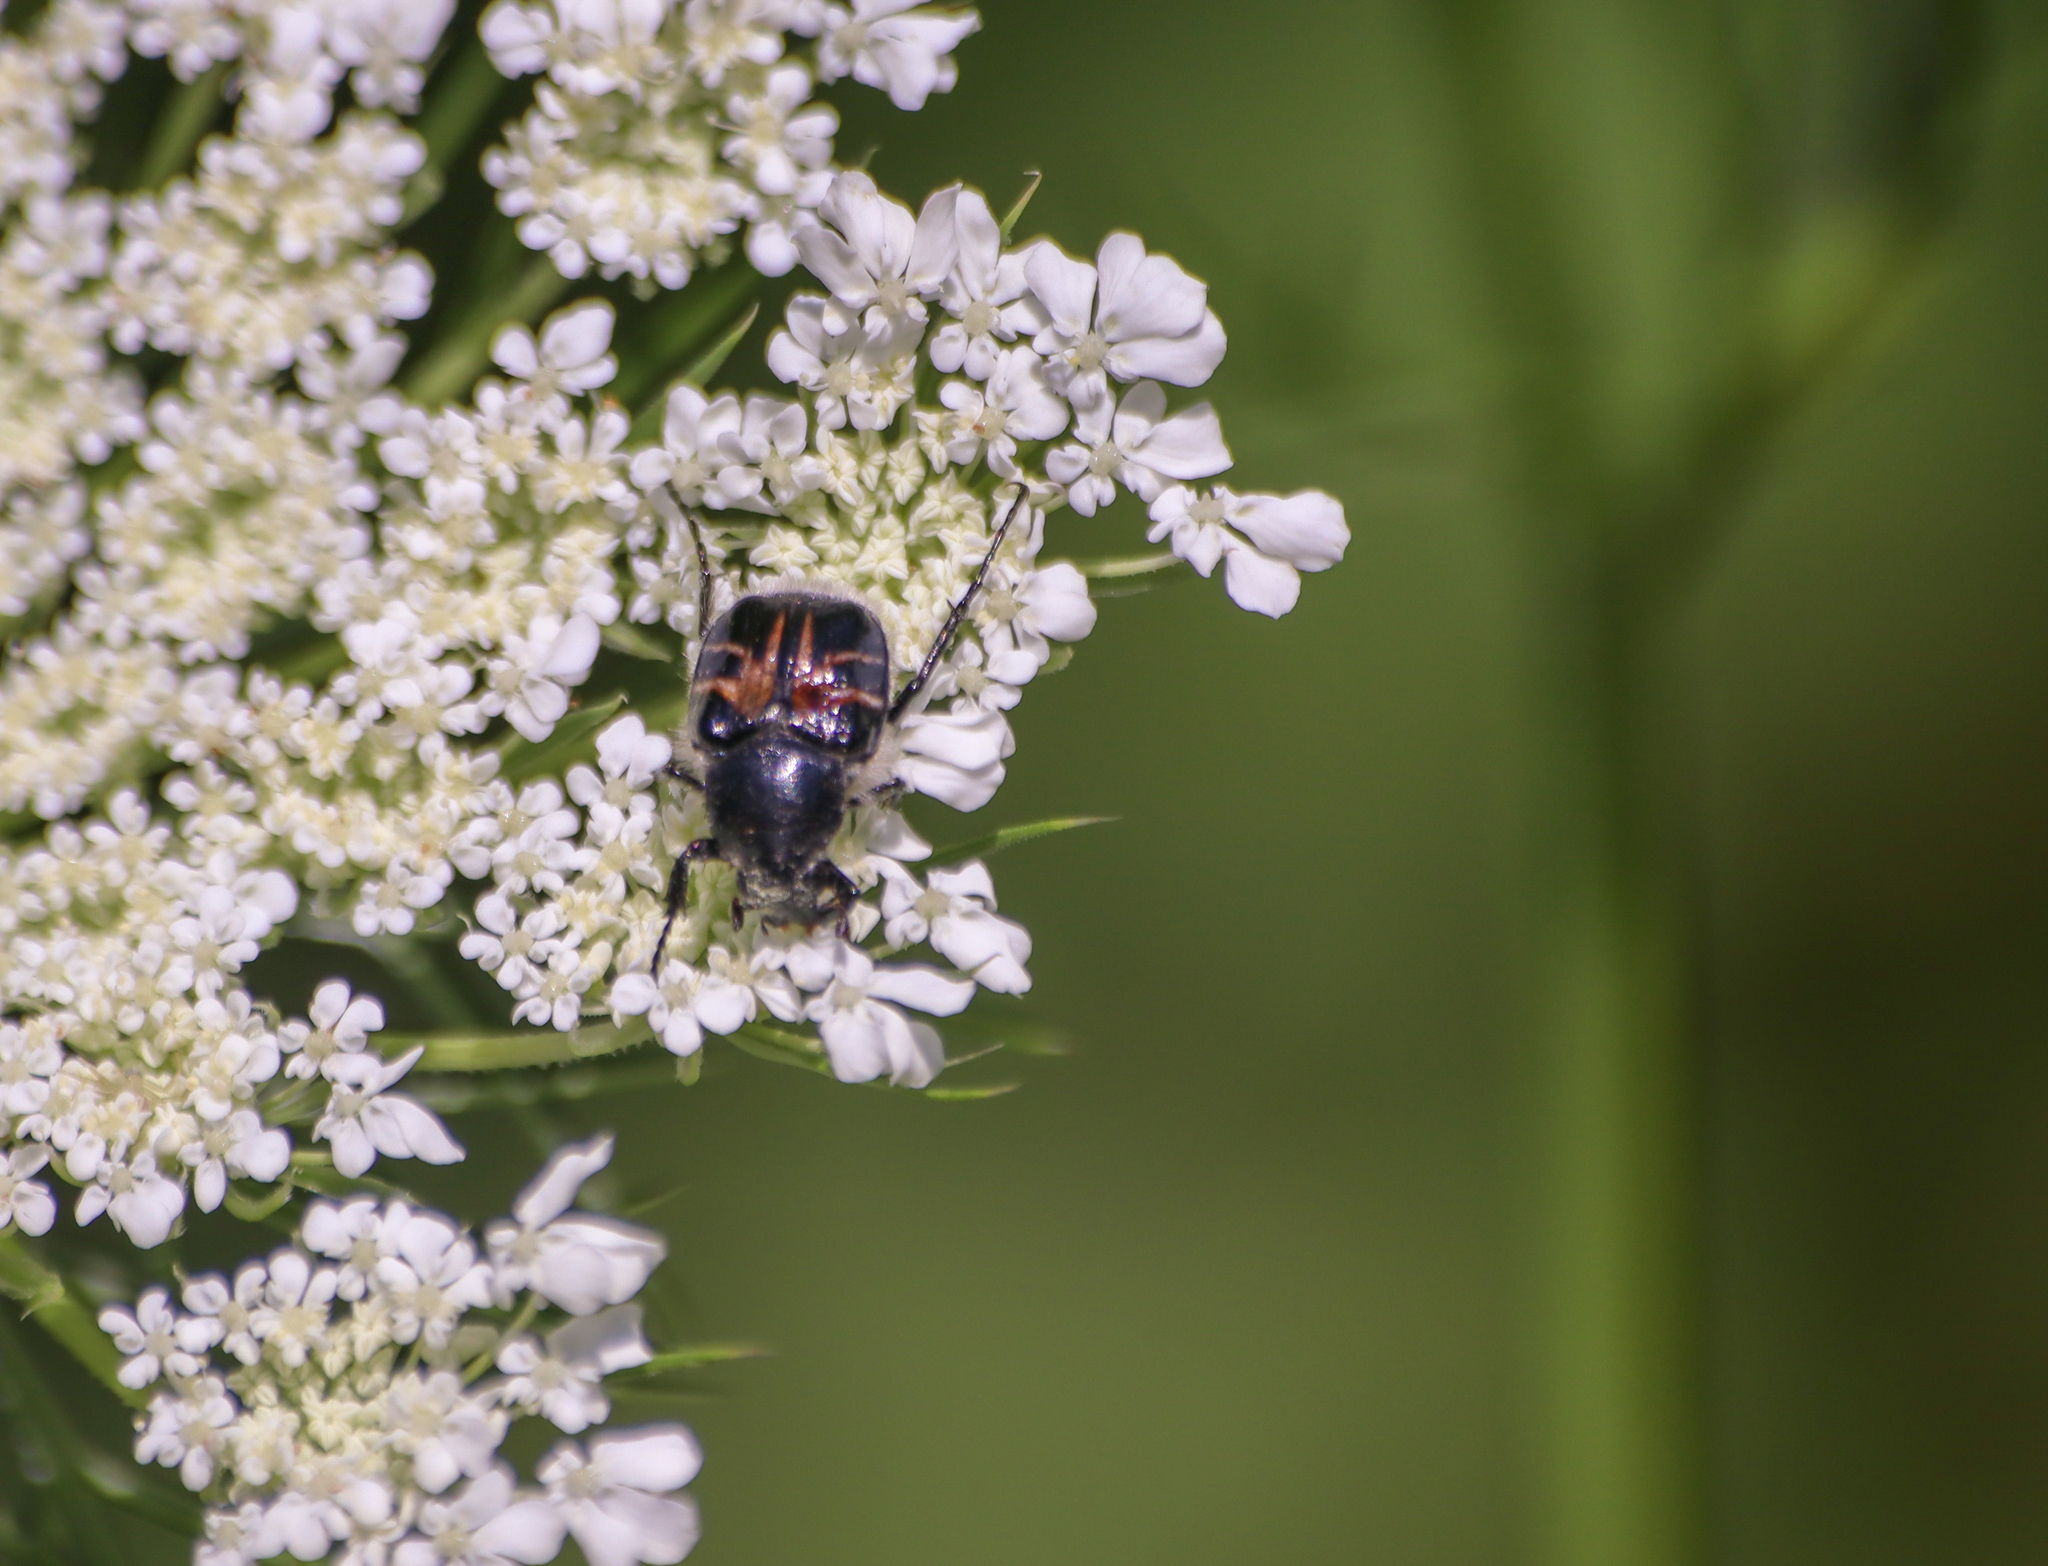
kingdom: Animalia
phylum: Arthropoda
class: Insecta
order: Coleoptera
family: Scarabaeidae
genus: Trichiotinus
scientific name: Trichiotinus assimilis
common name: Bee-mimic beetle
